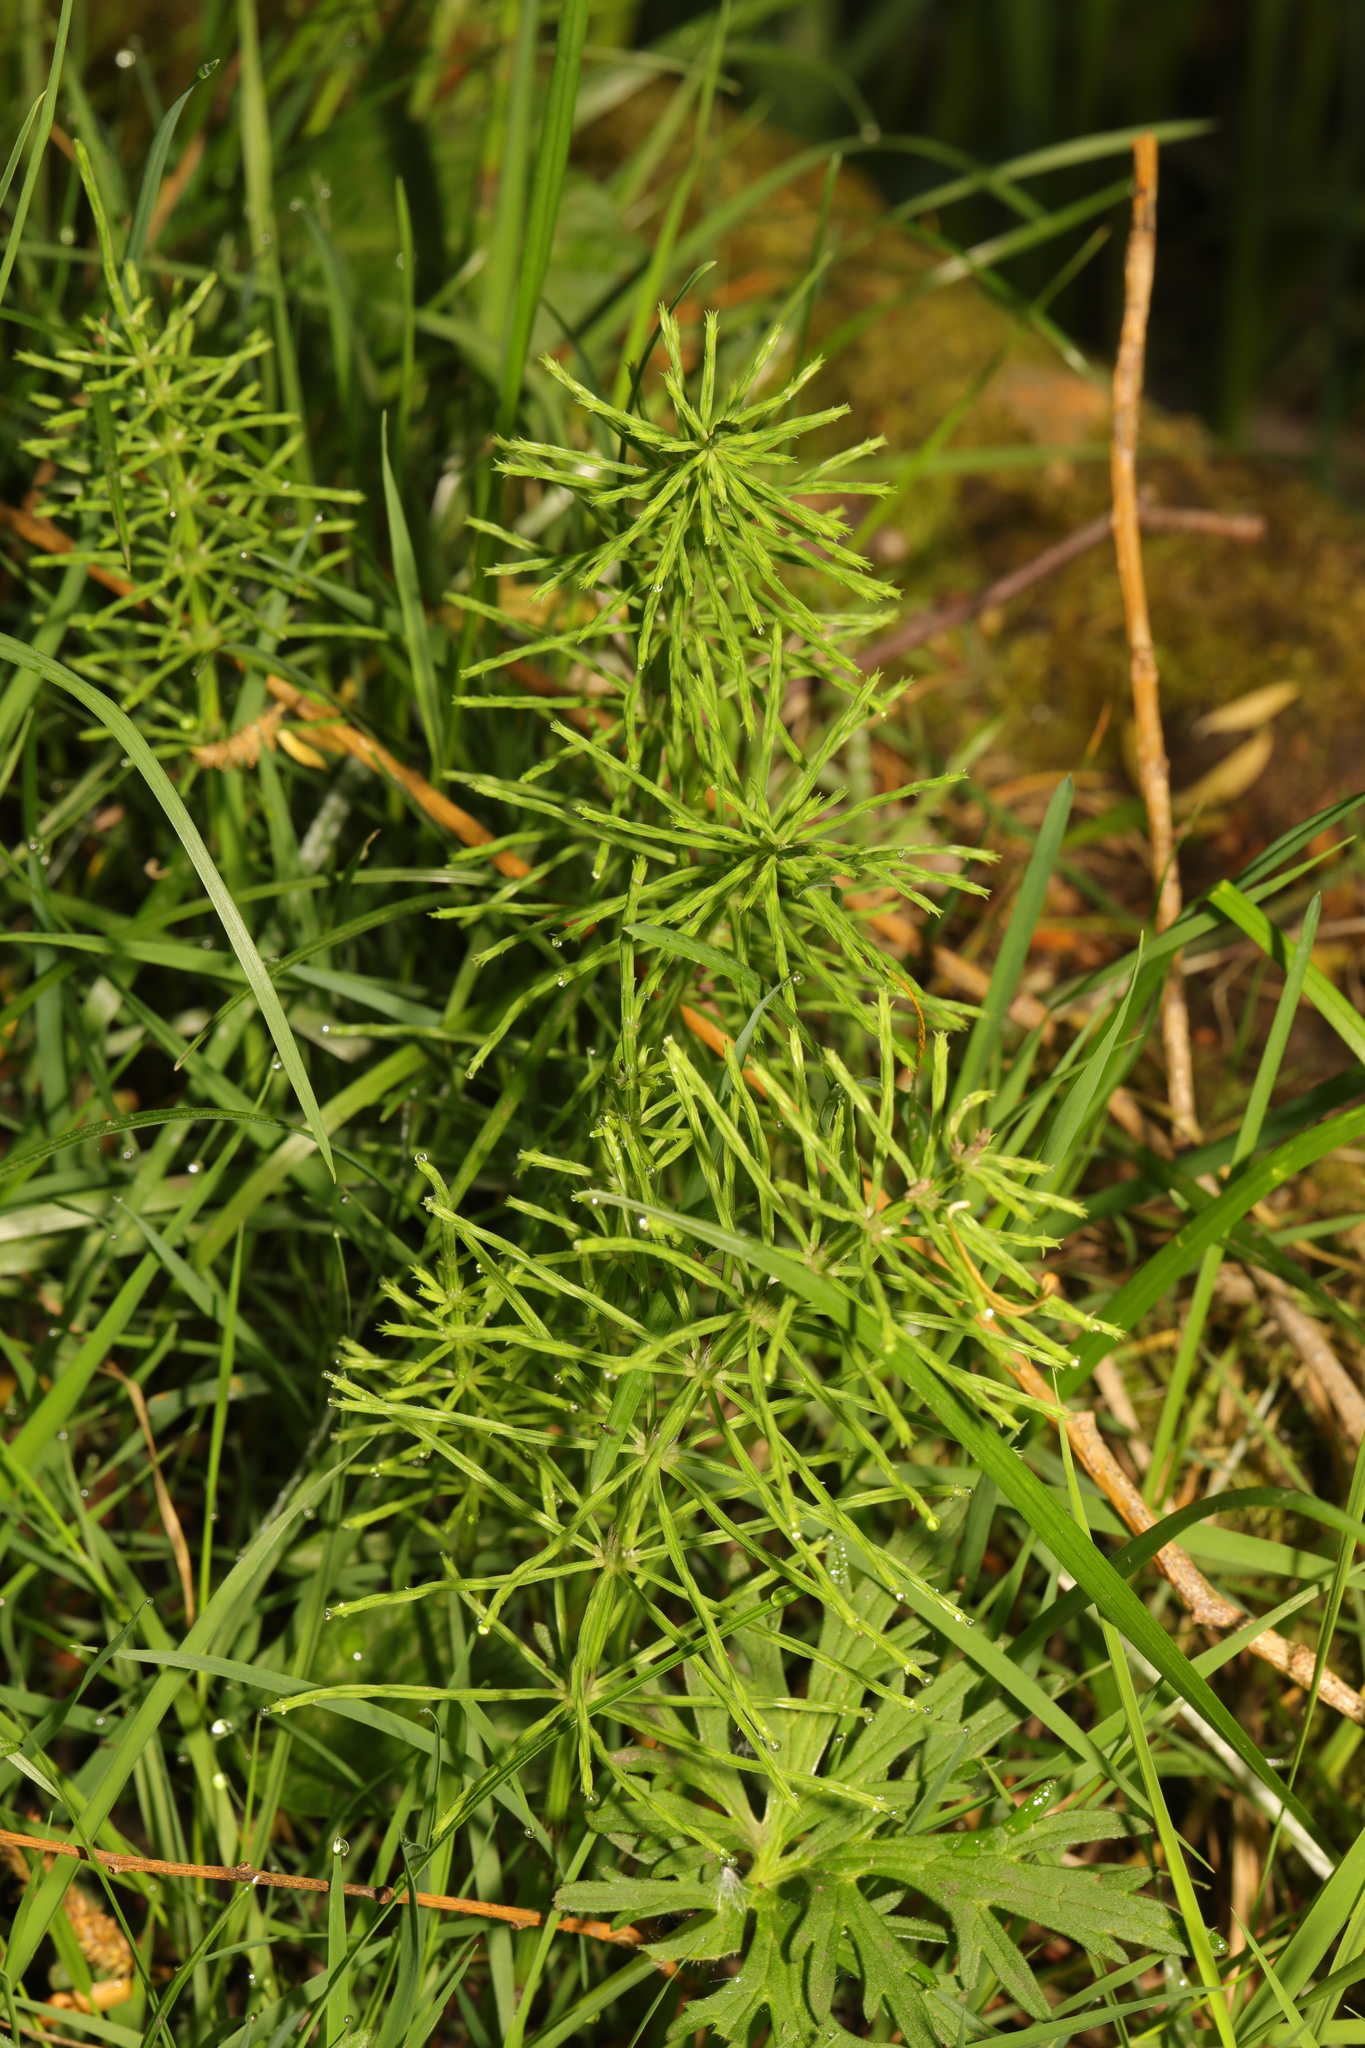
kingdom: Plantae
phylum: Tracheophyta
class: Polypodiopsida
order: Equisetales
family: Equisetaceae
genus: Equisetum
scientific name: Equisetum arvense
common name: Field horsetail
